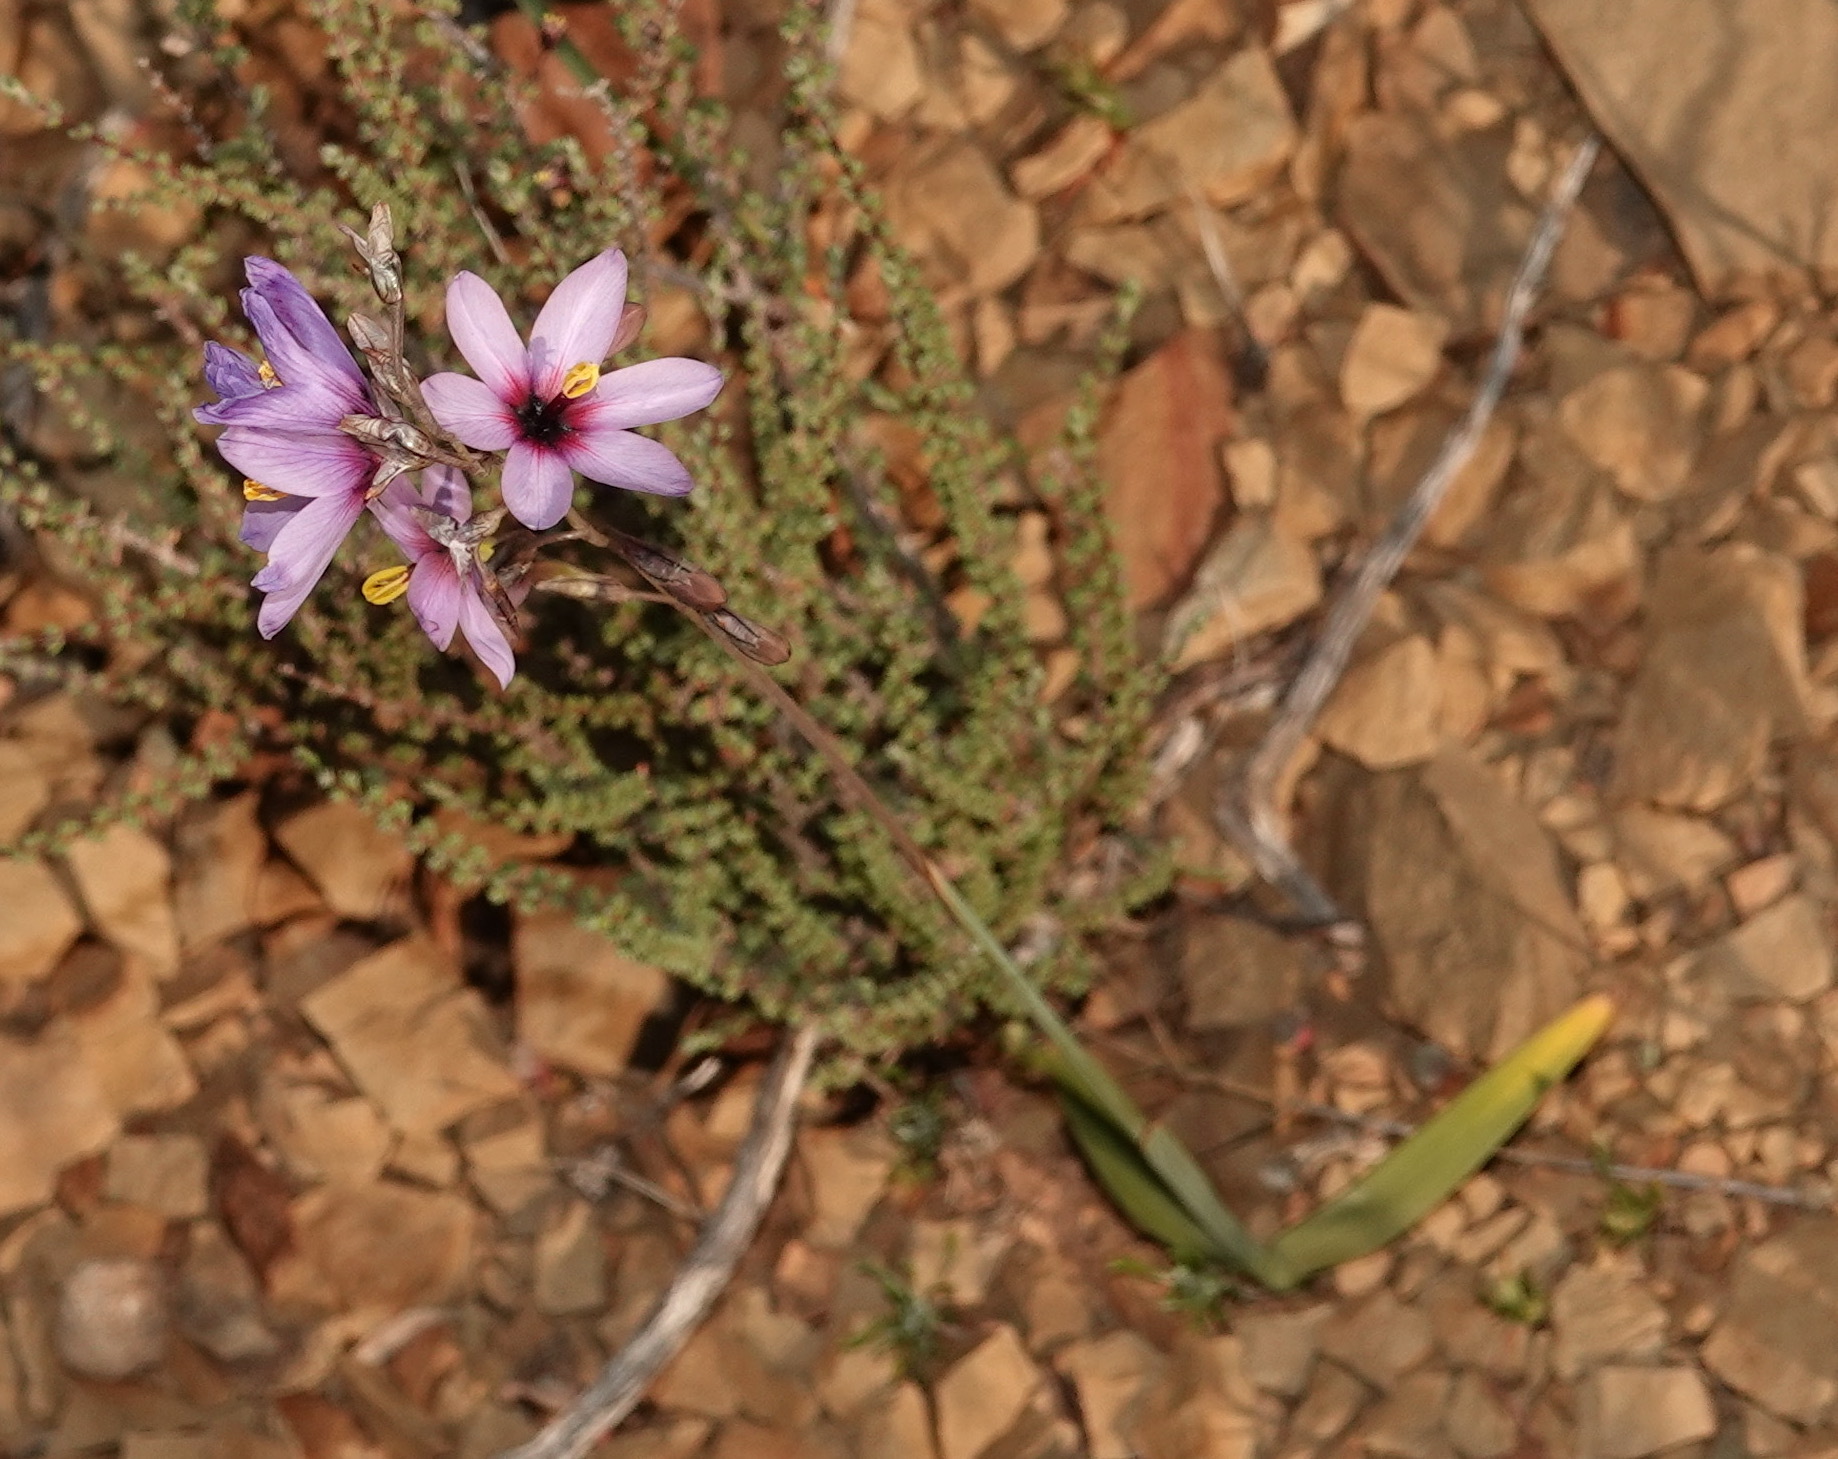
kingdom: Plantae
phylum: Tracheophyta
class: Liliopsida
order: Asparagales
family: Iridaceae
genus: Ixia
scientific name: Ixia pavonia
